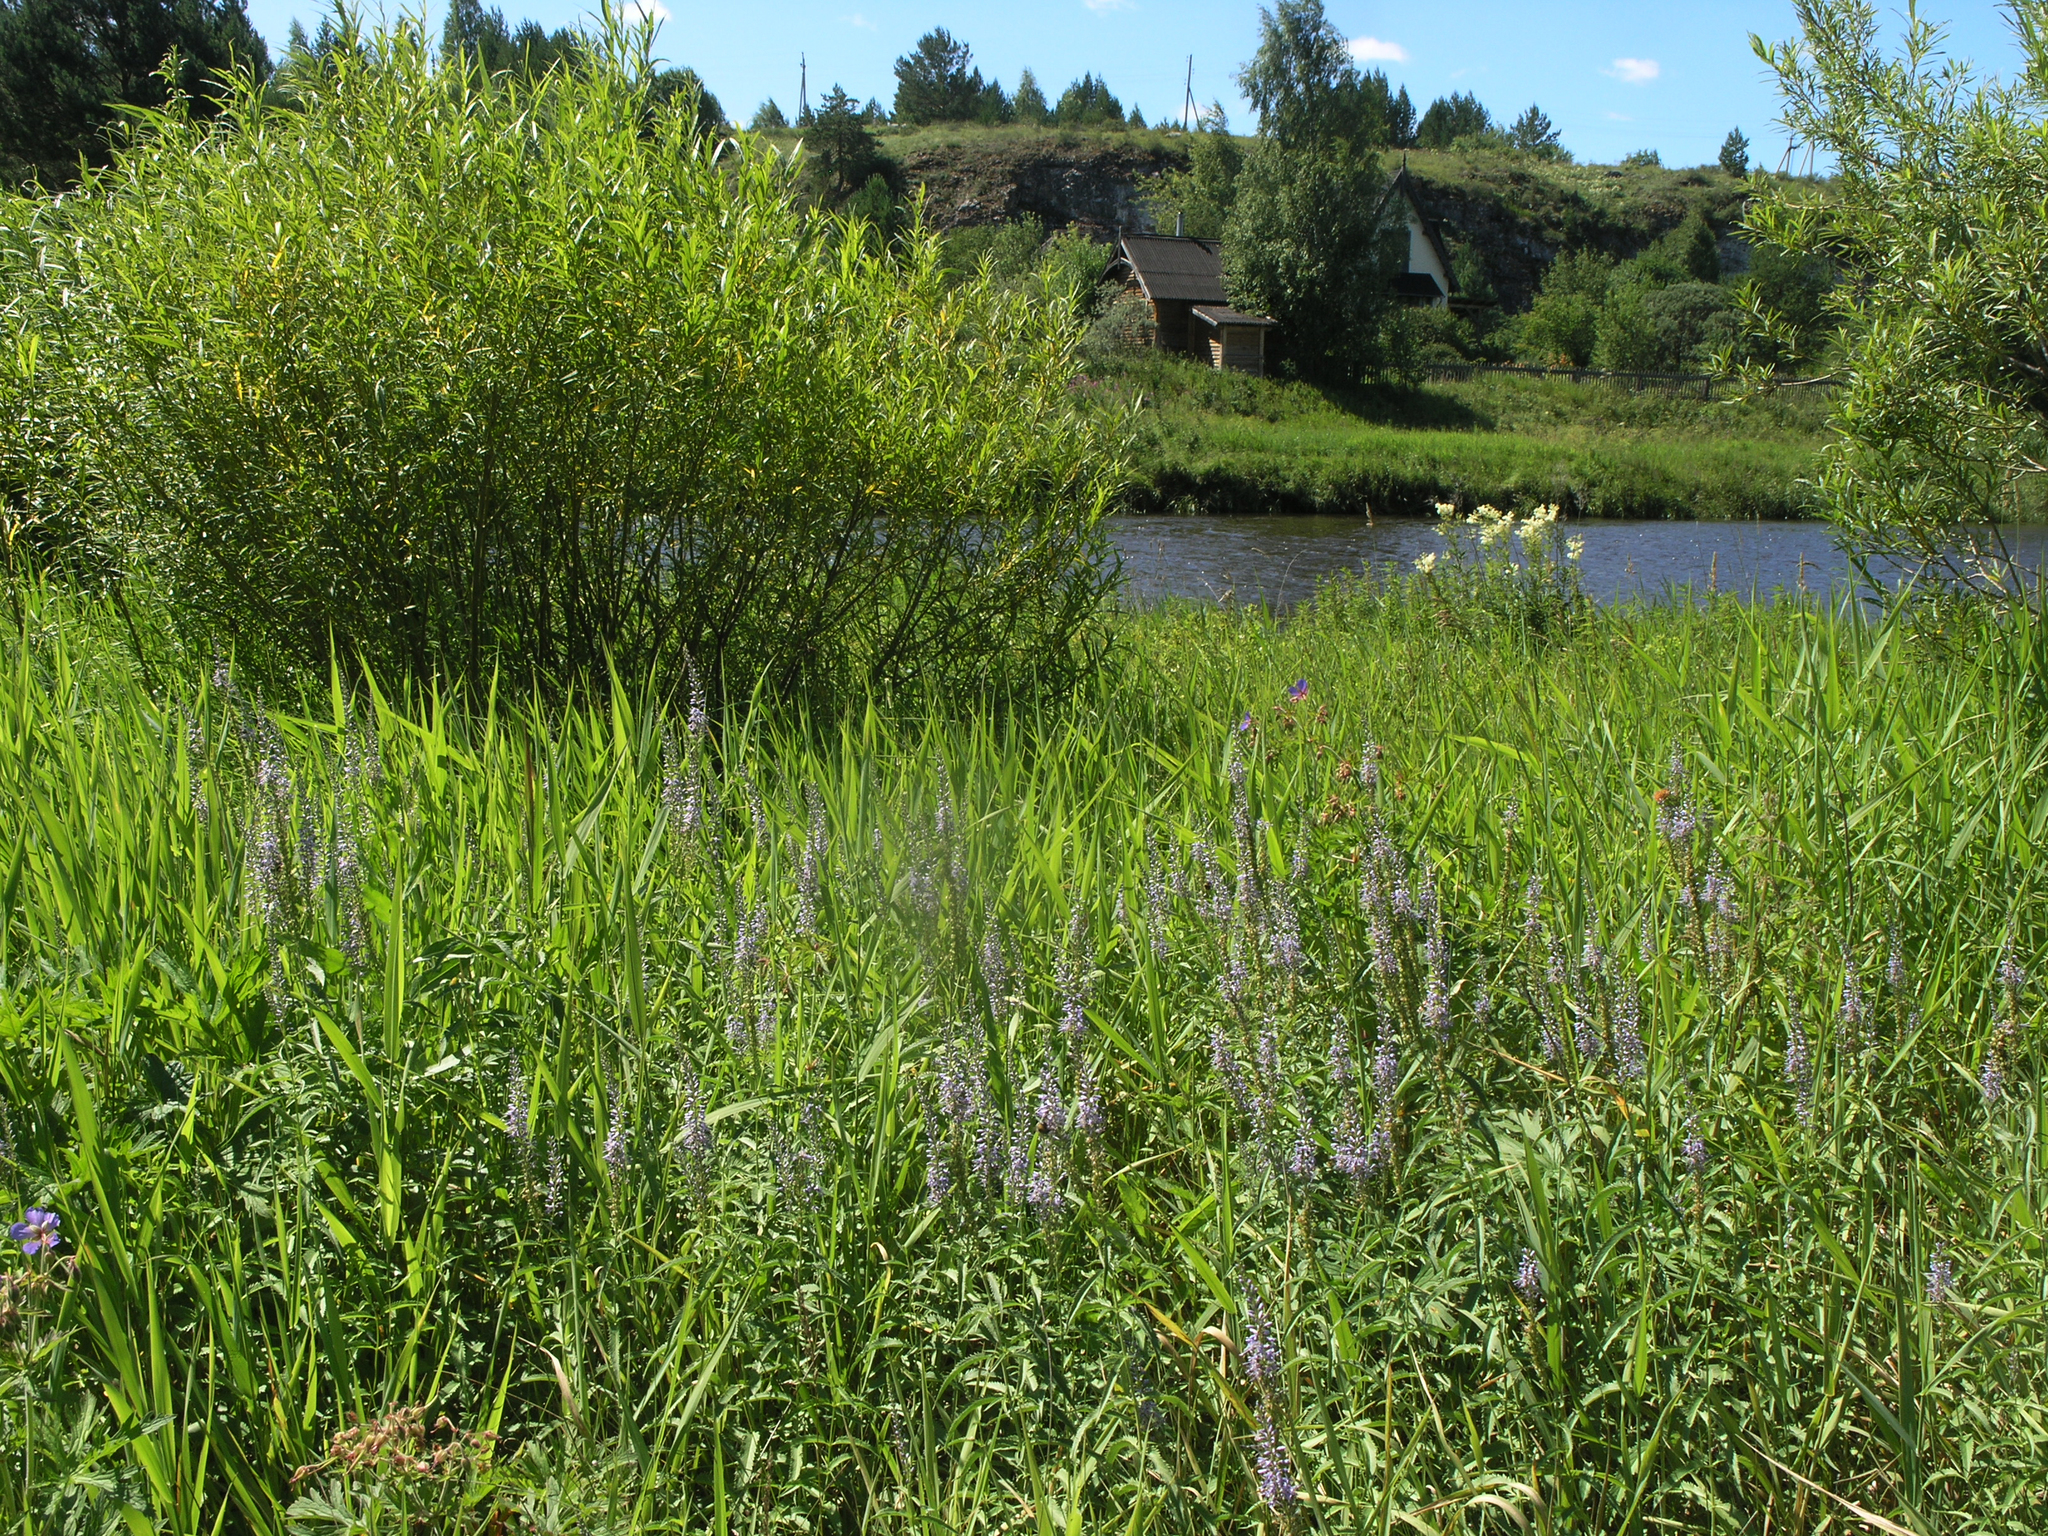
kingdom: Plantae
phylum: Tracheophyta
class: Magnoliopsida
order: Lamiales
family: Plantaginaceae
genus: Veronica
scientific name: Veronica longifolia
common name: Garden speedwell
